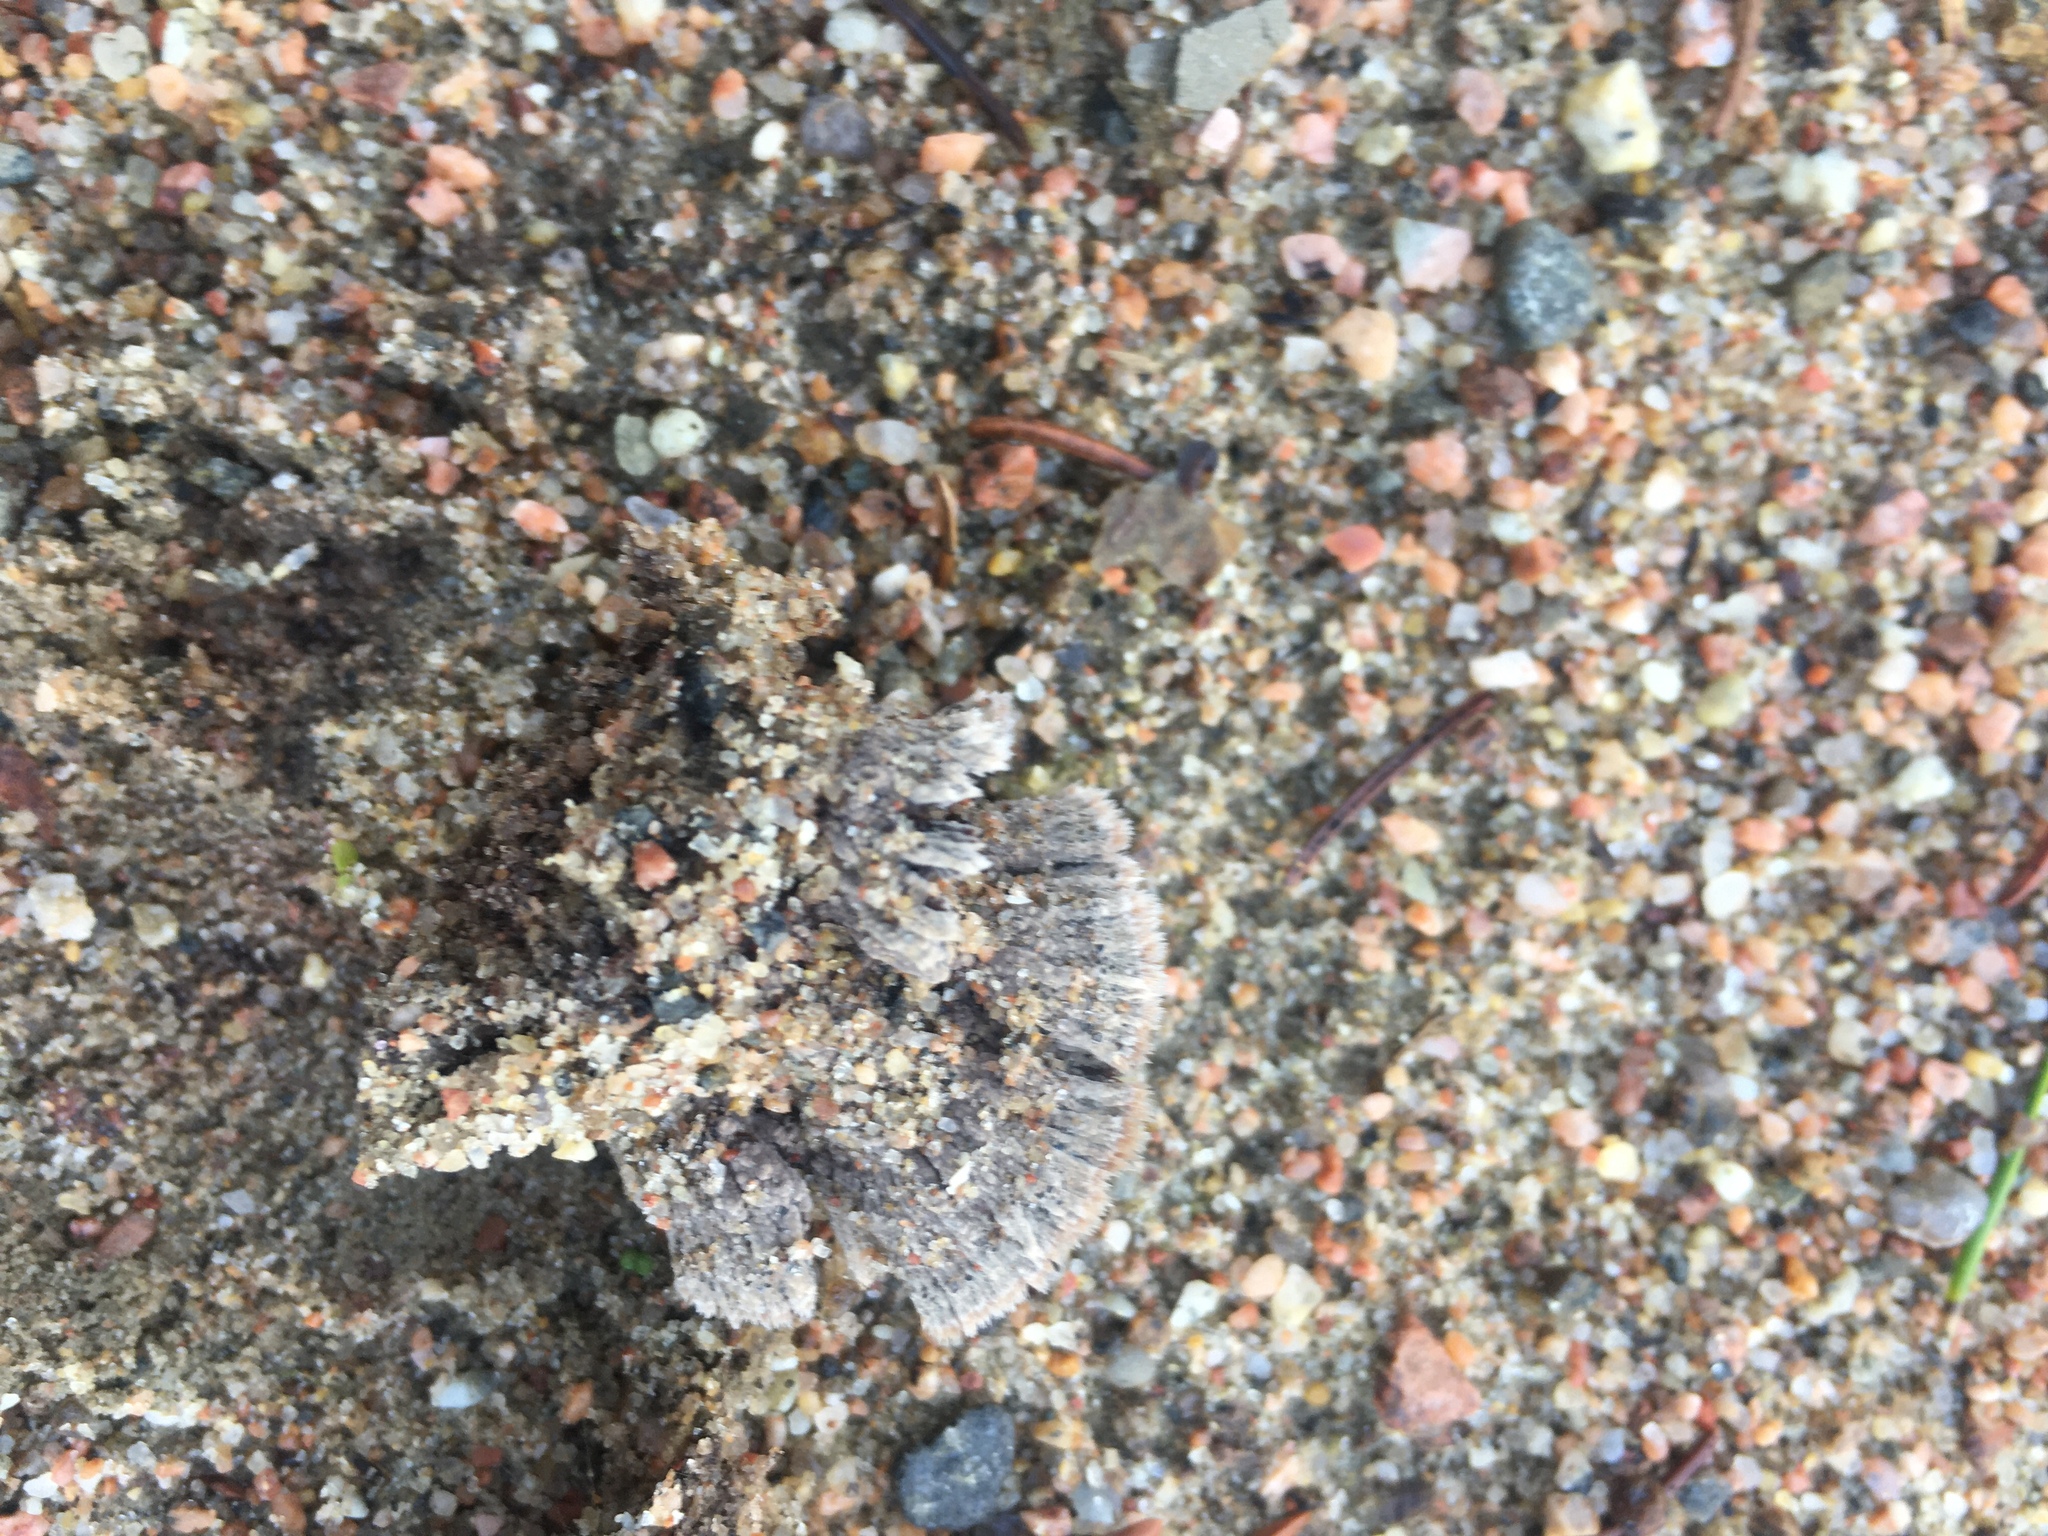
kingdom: Fungi
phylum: Basidiomycota
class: Agaricomycetes
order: Thelephorales
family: Thelephoraceae
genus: Thelephora
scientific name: Thelephora terrestris
